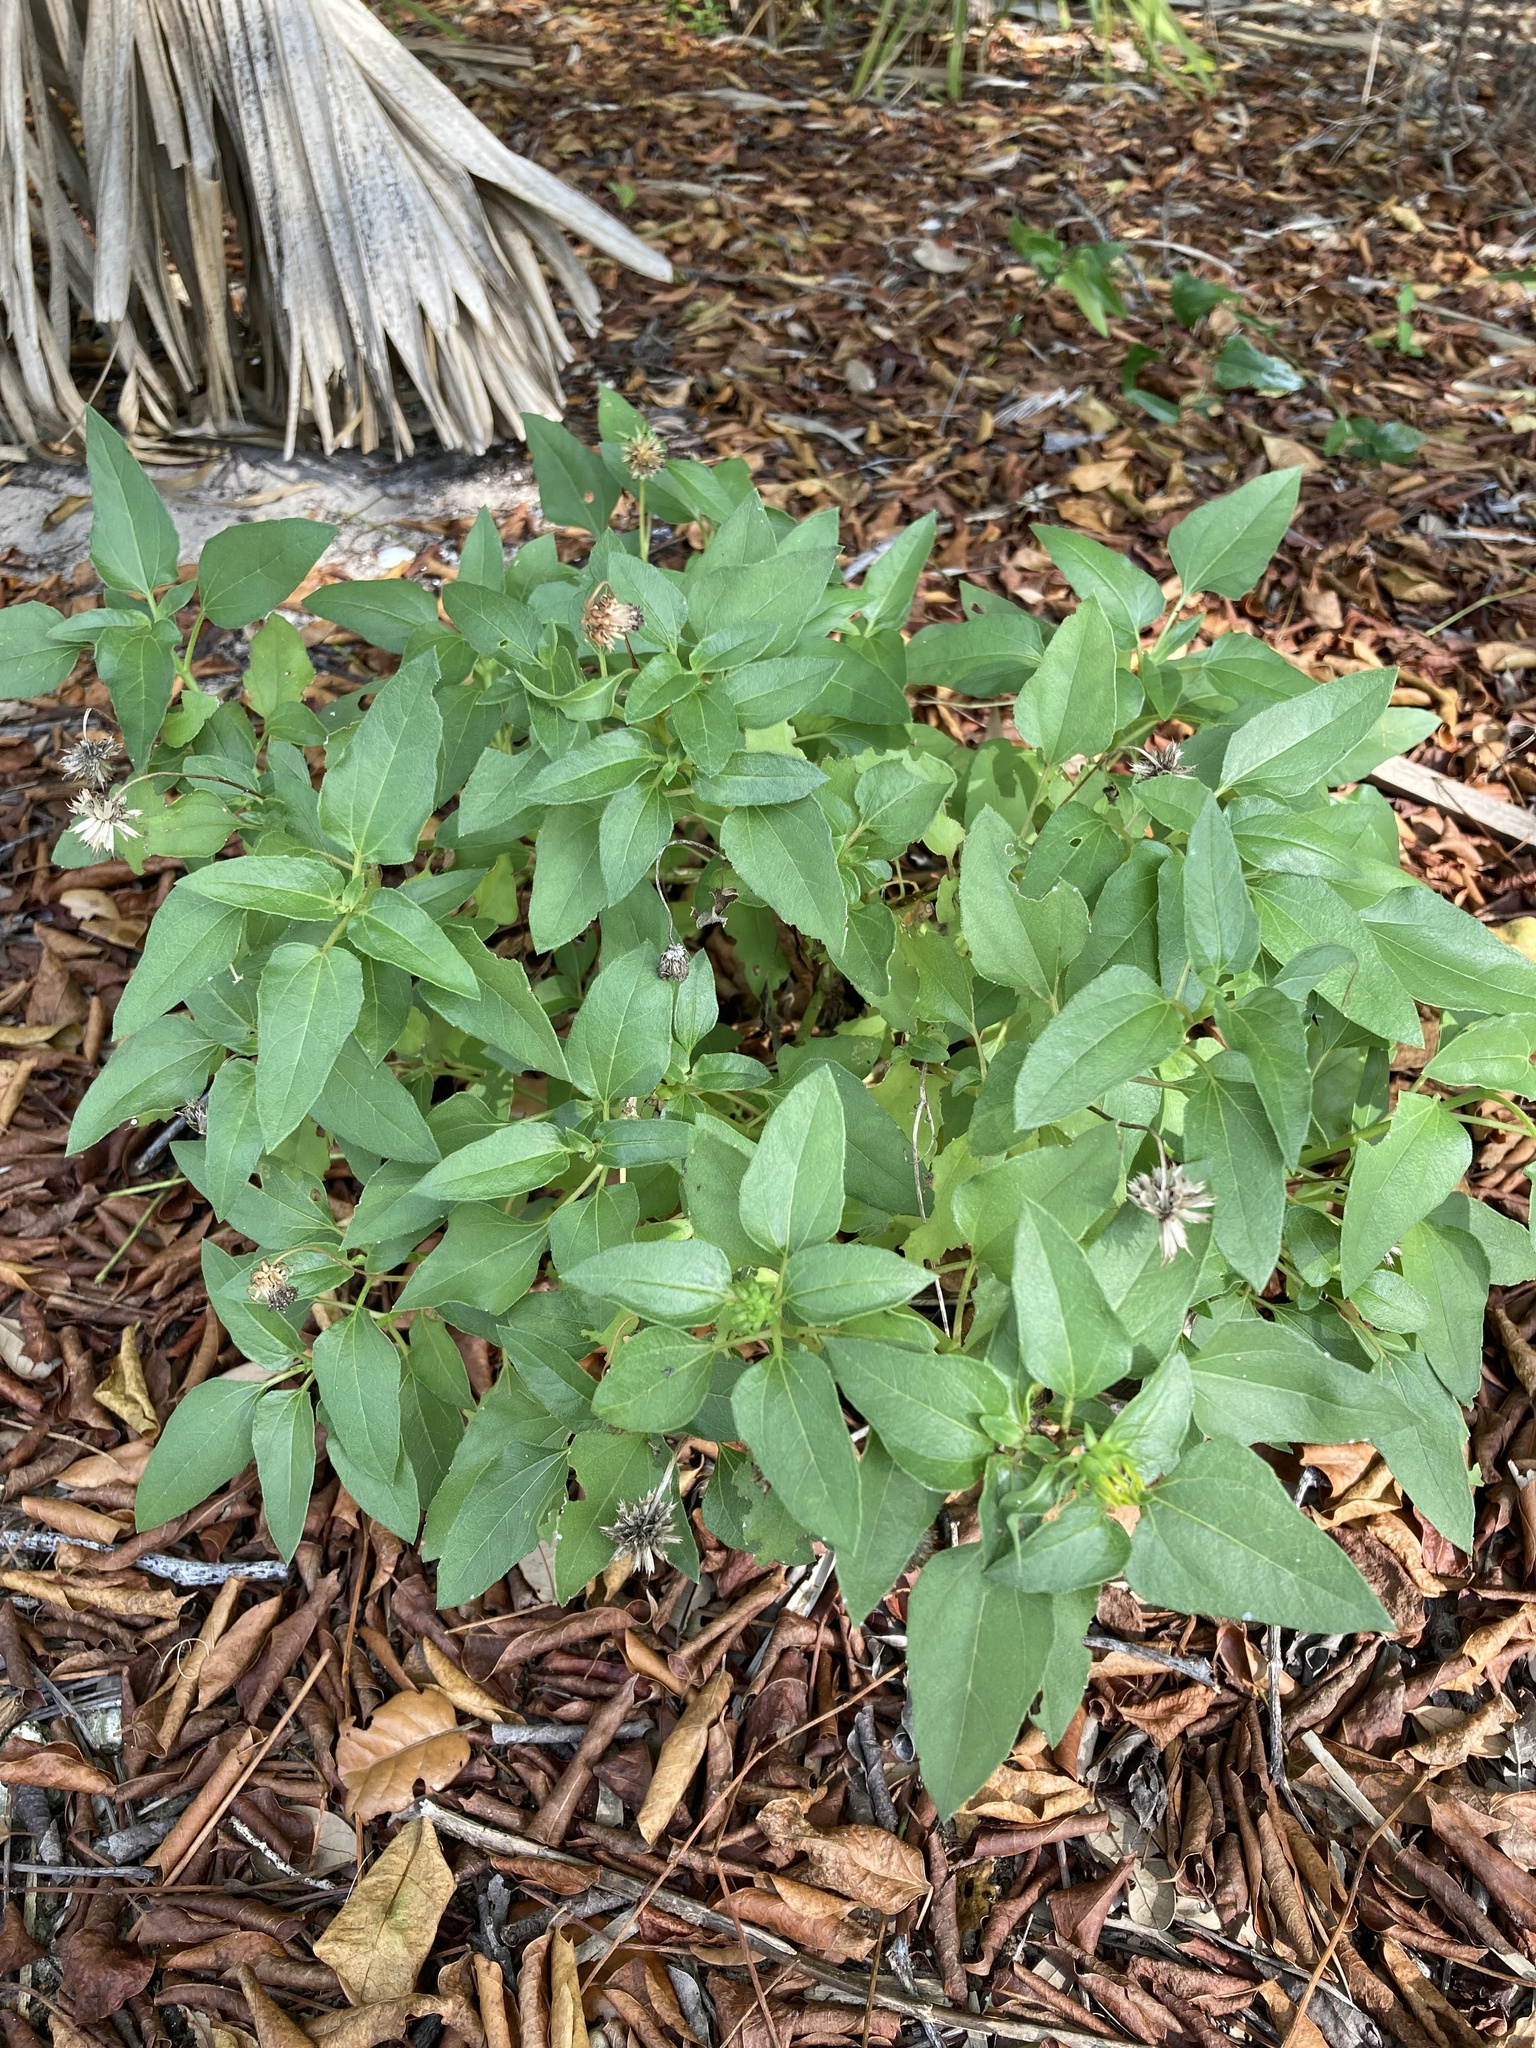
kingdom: Plantae
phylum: Tracheophyta
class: Magnoliopsida
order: Asterales
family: Asteraceae
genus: Helianthus
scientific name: Helianthus debilis
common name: Weak sunflower
